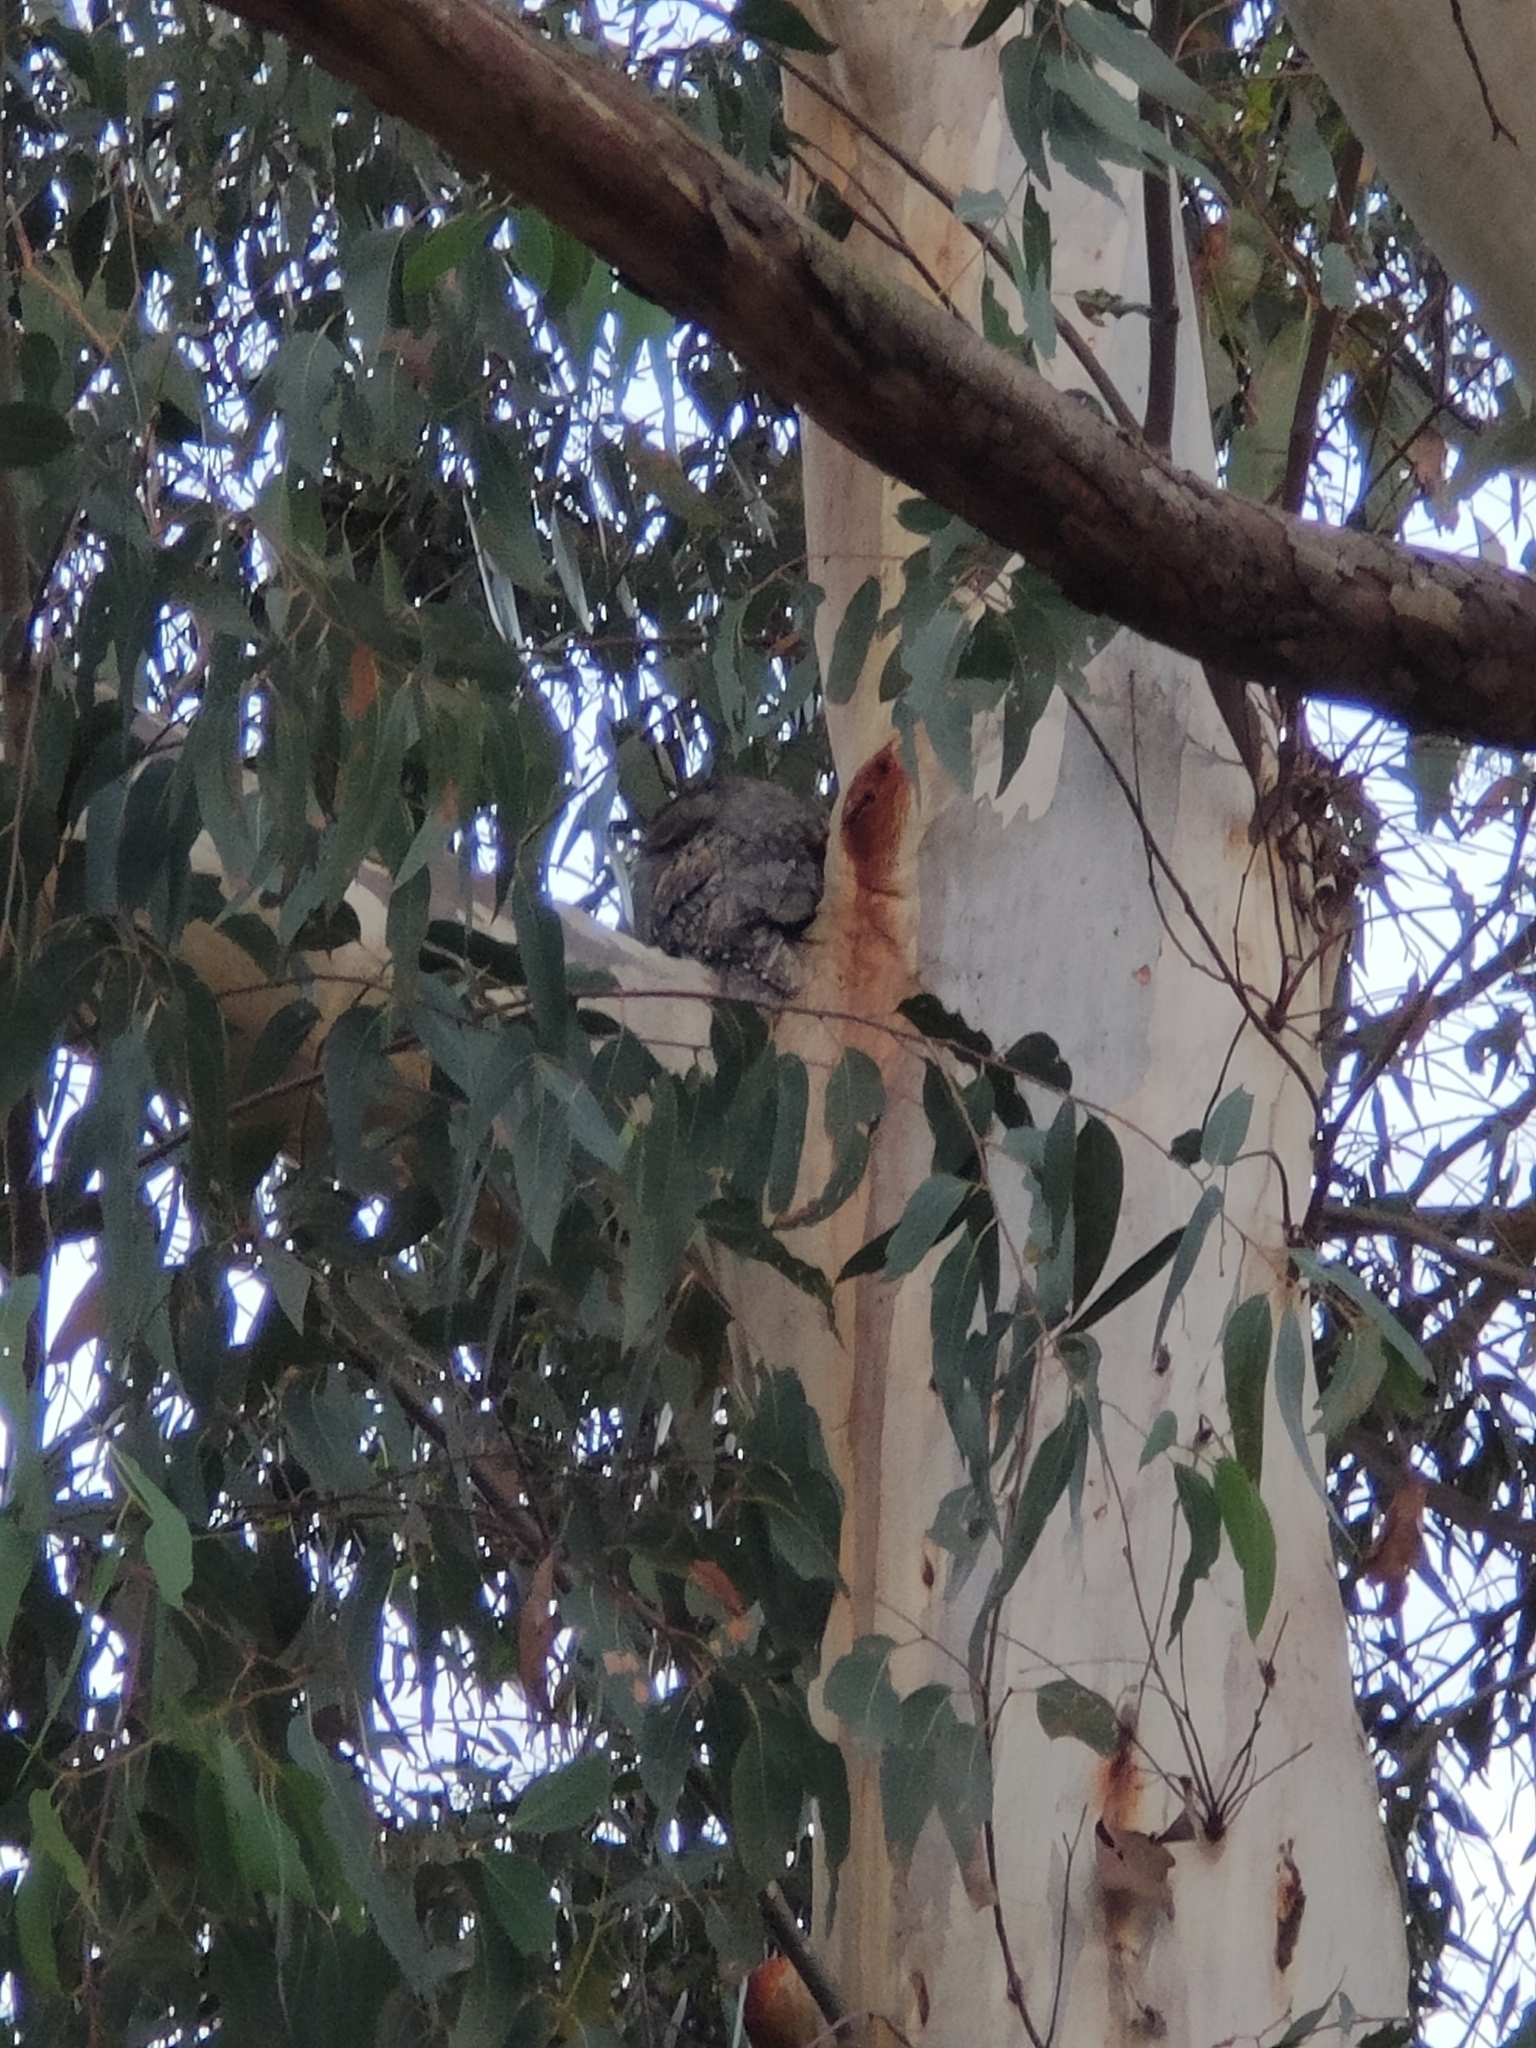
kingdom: Animalia
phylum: Chordata
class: Aves
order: Caprimulgiformes
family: Podargidae
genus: Podargus
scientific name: Podargus strigoides
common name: Tawny frogmouth
